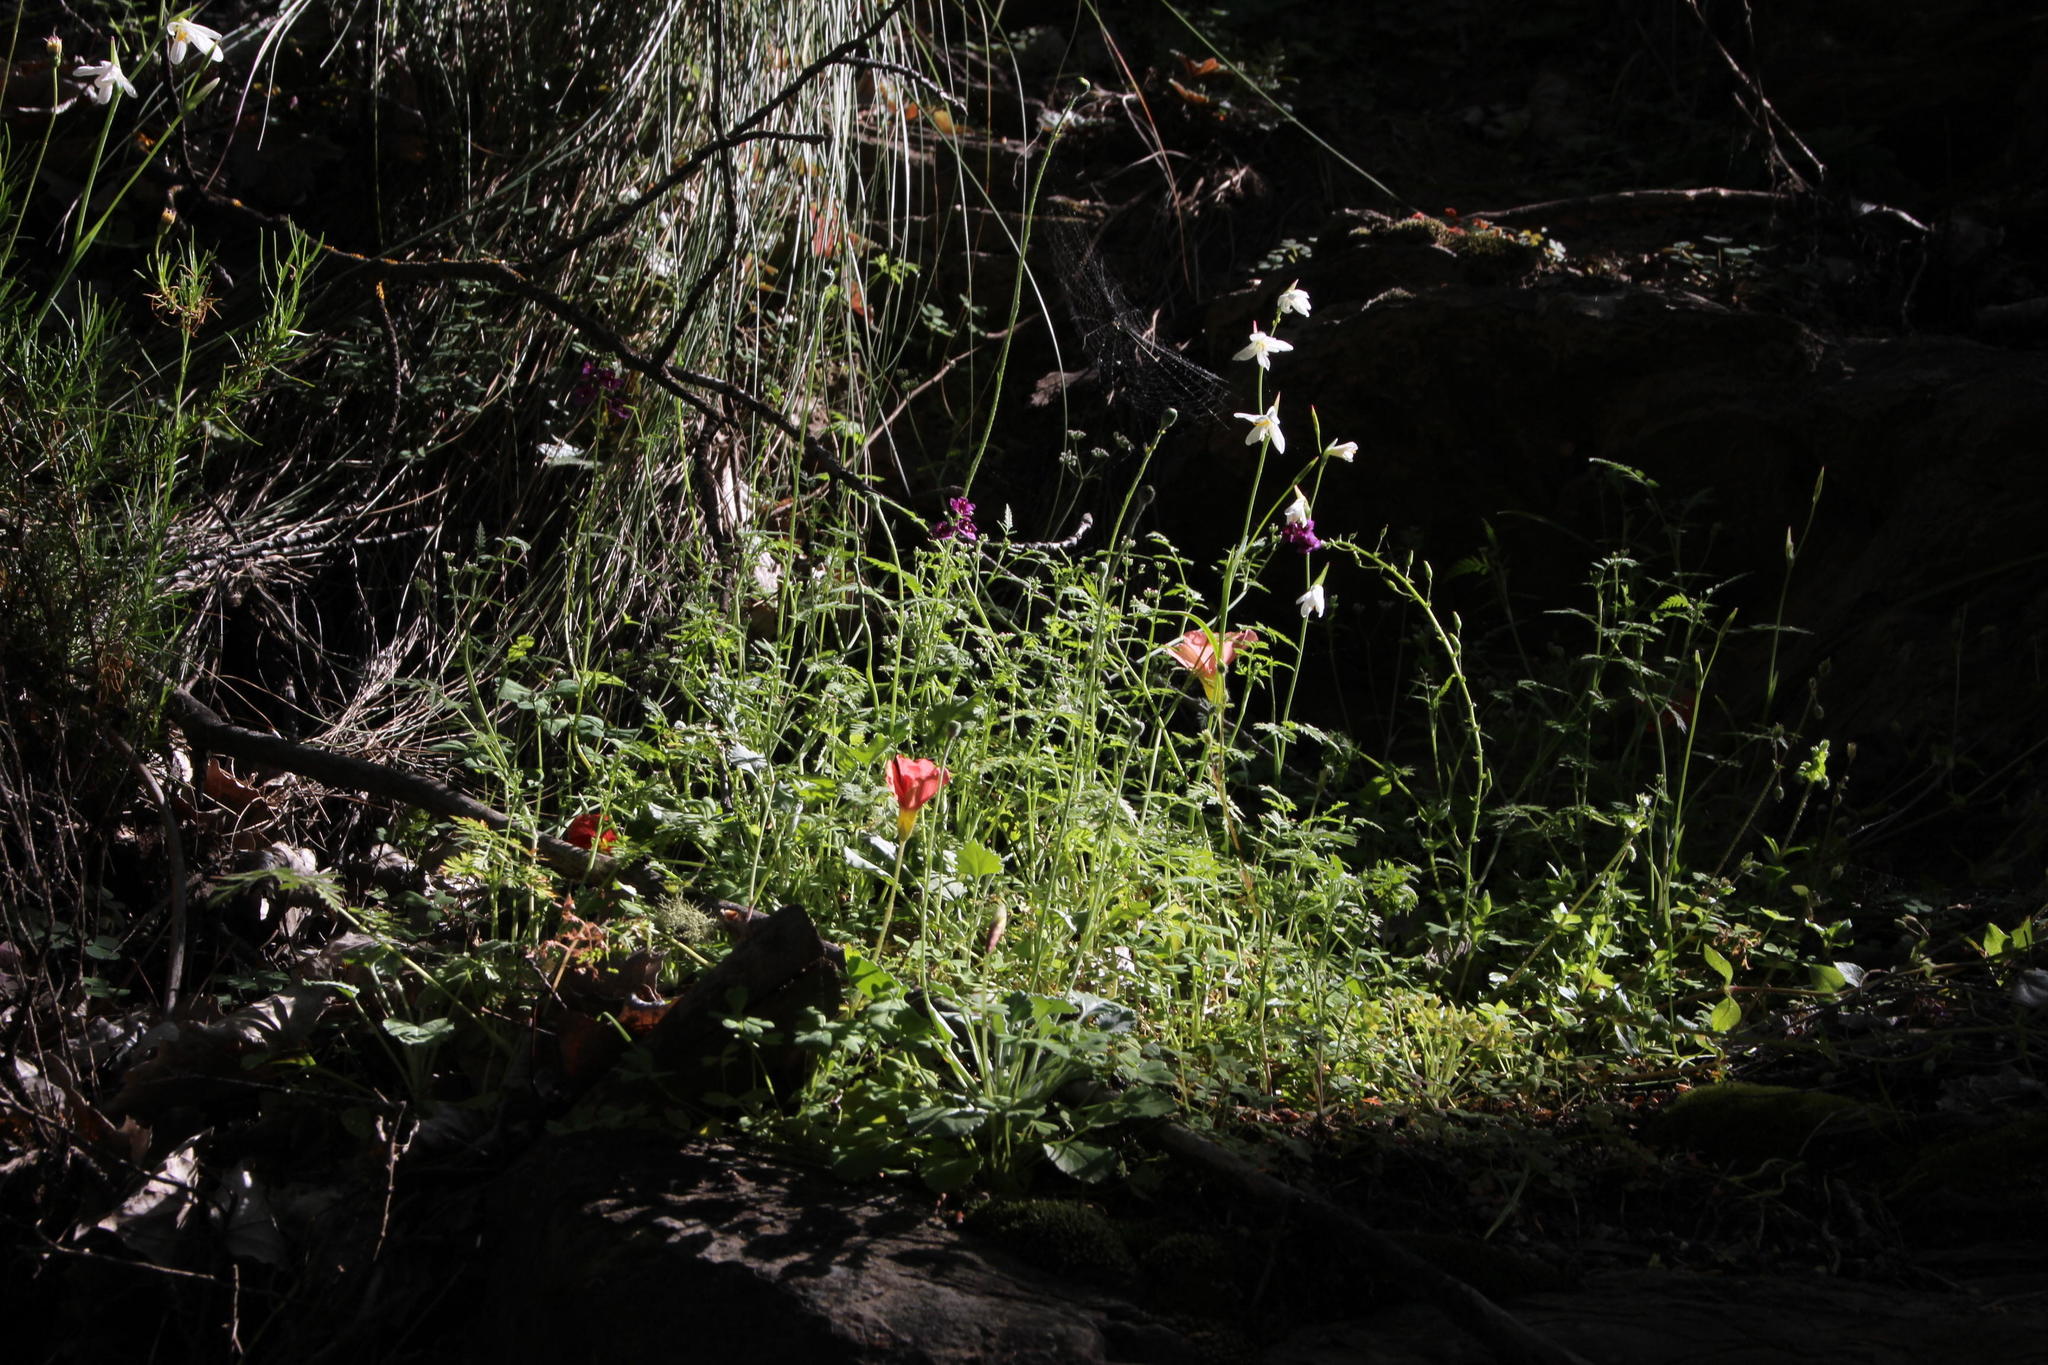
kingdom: Plantae
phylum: Tracheophyta
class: Magnoliopsida
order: Oxalidales
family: Oxalidaceae
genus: Oxalis
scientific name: Oxalis obtusa
